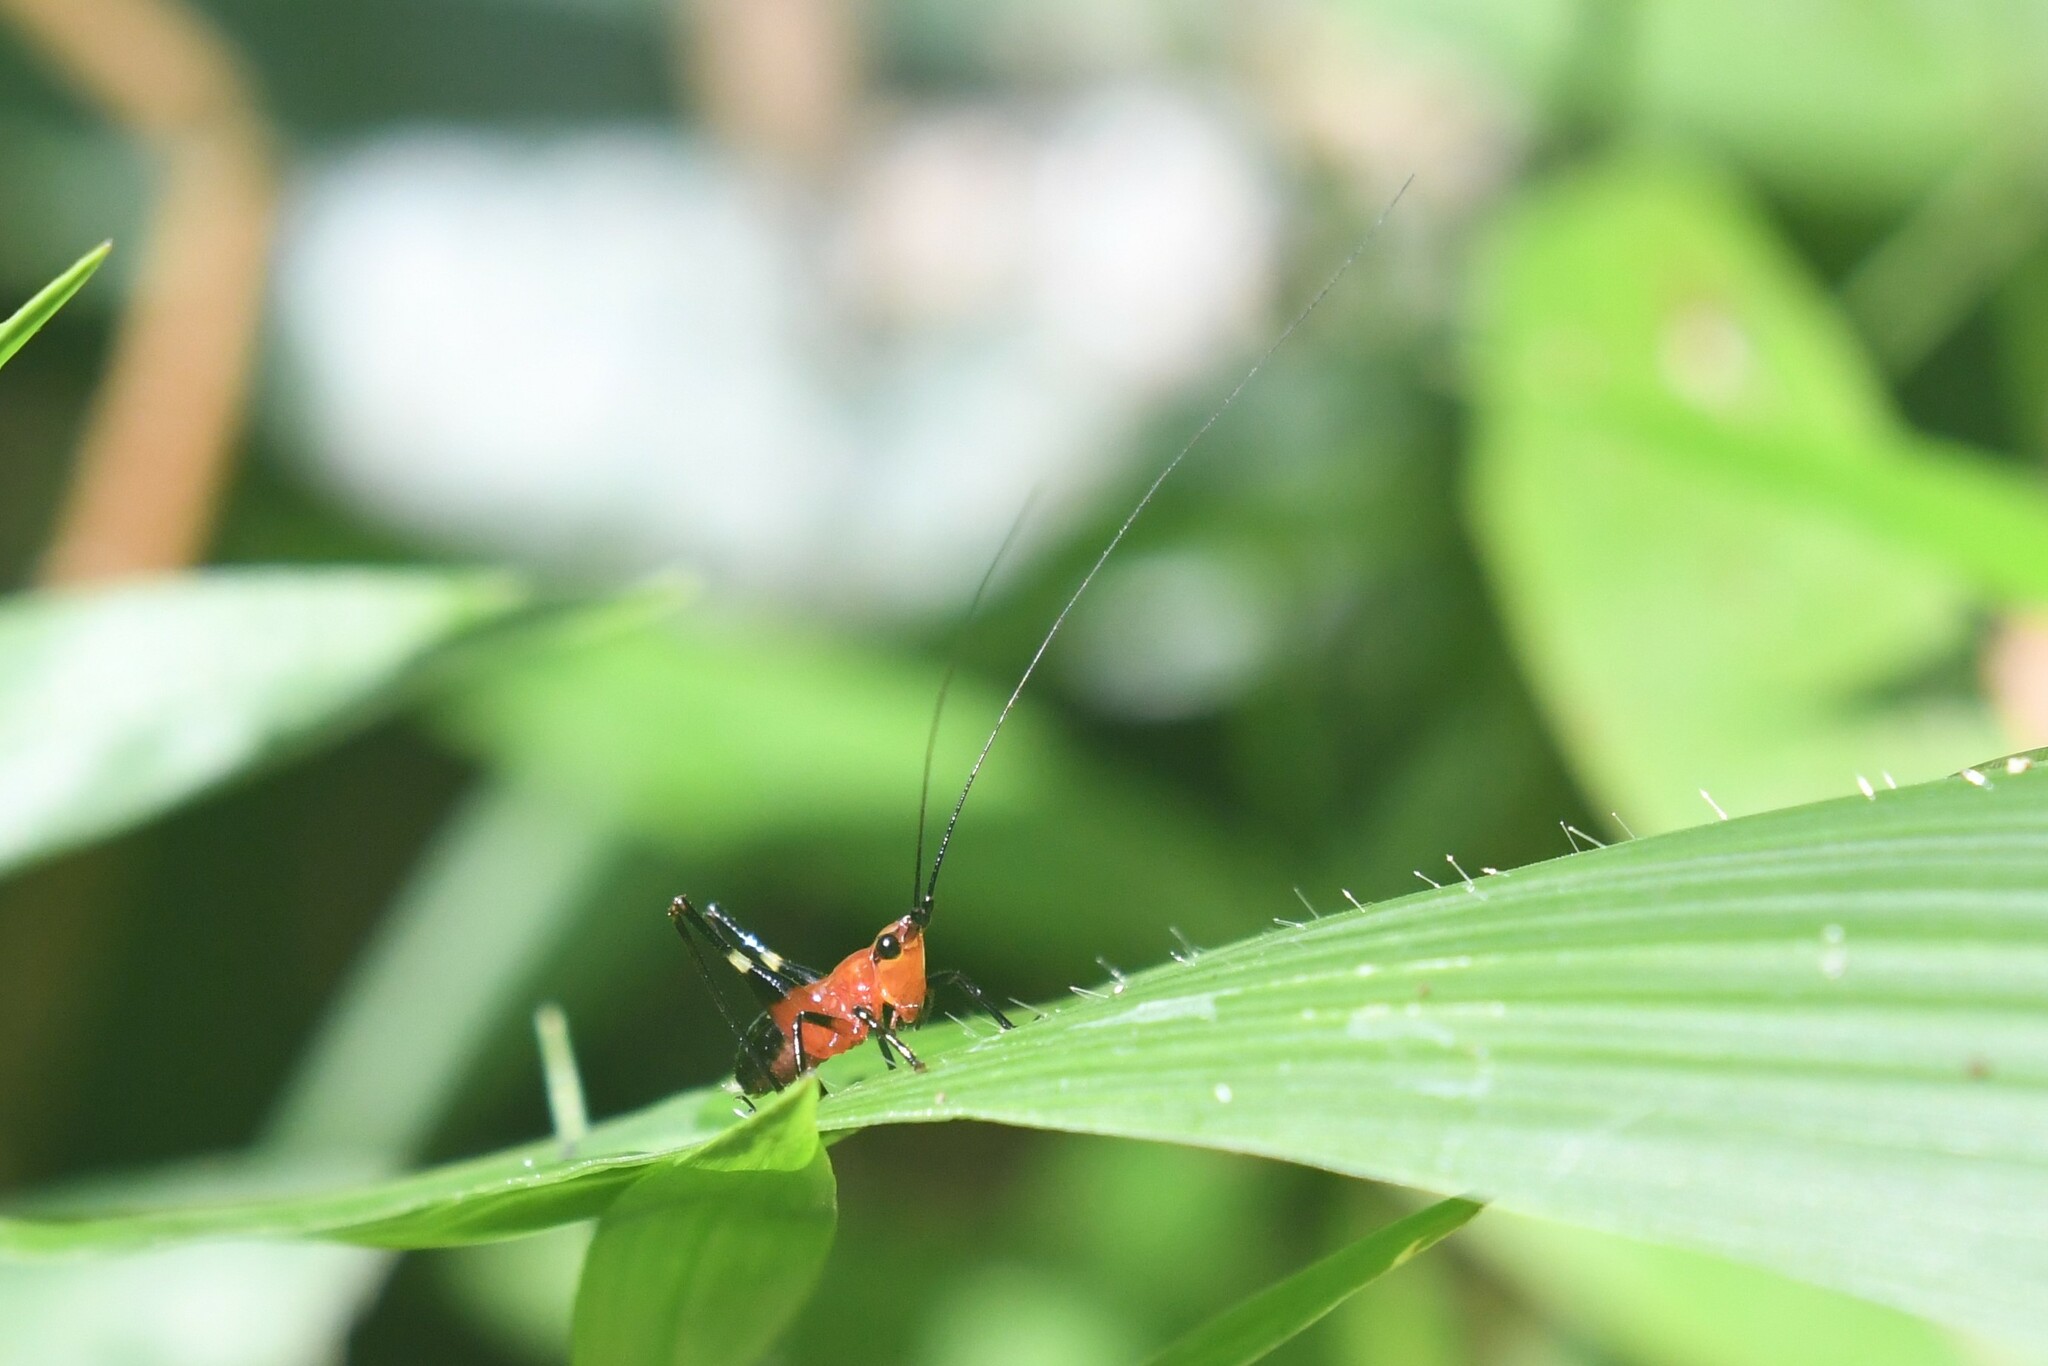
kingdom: Animalia
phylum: Arthropoda
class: Insecta
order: Orthoptera
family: Tettigoniidae
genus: Conocephalus
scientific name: Conocephalus melaenus
